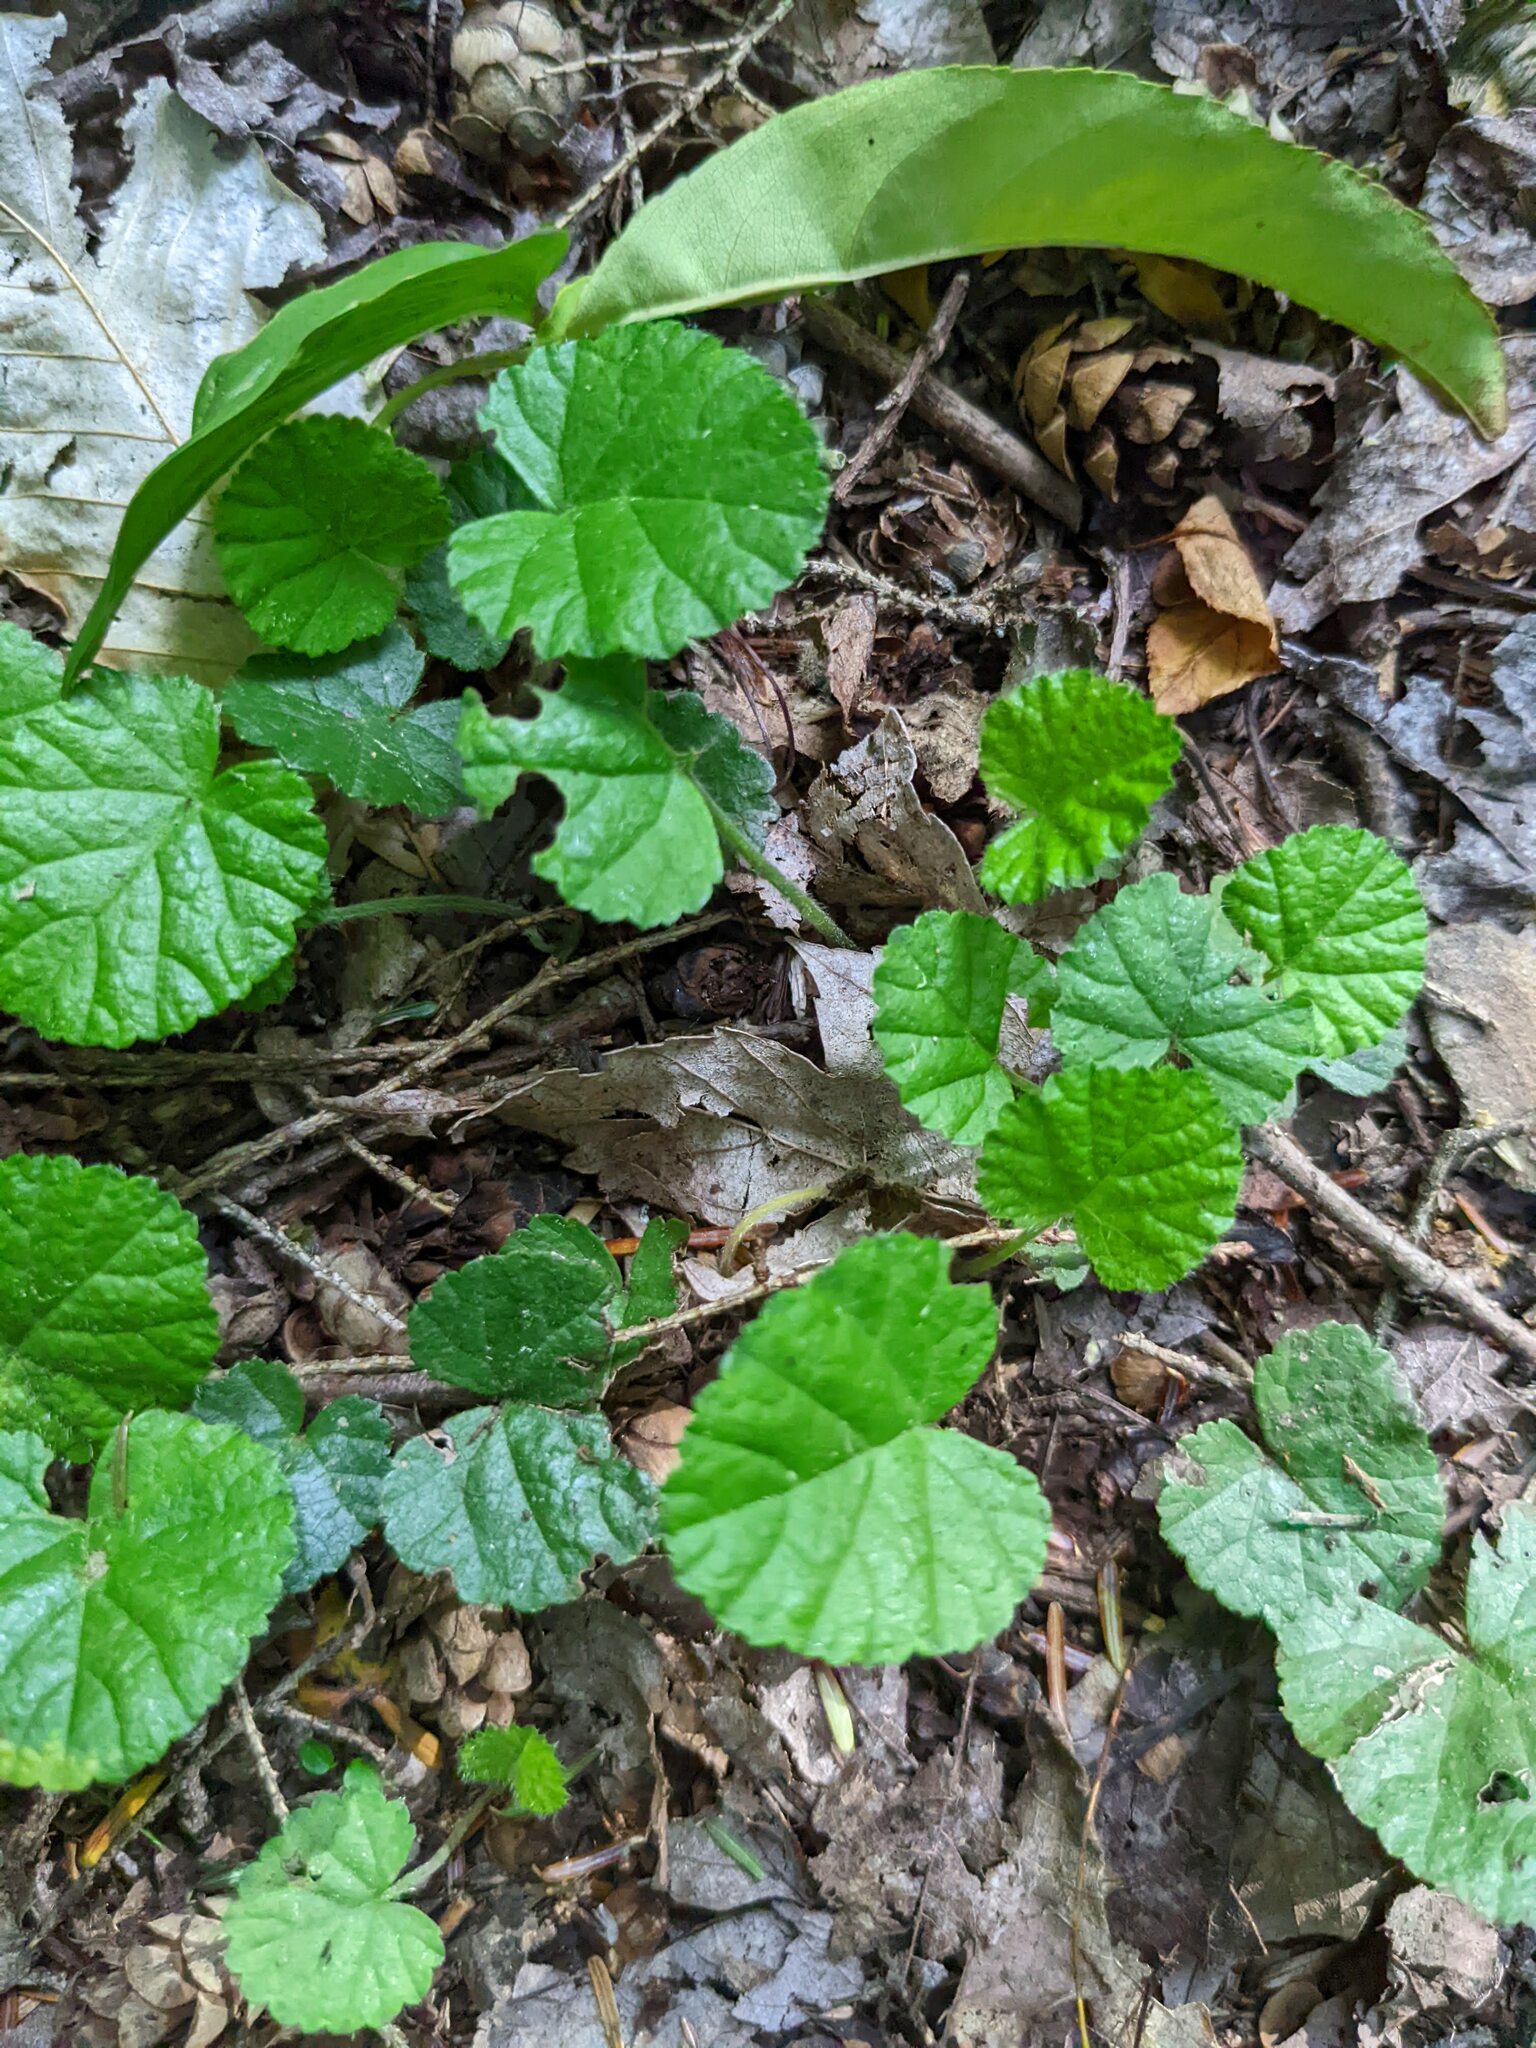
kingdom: Plantae
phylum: Tracheophyta
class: Magnoliopsida
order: Rosales
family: Rosaceae
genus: Dalibarda
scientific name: Dalibarda repens
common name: Dewdrop
